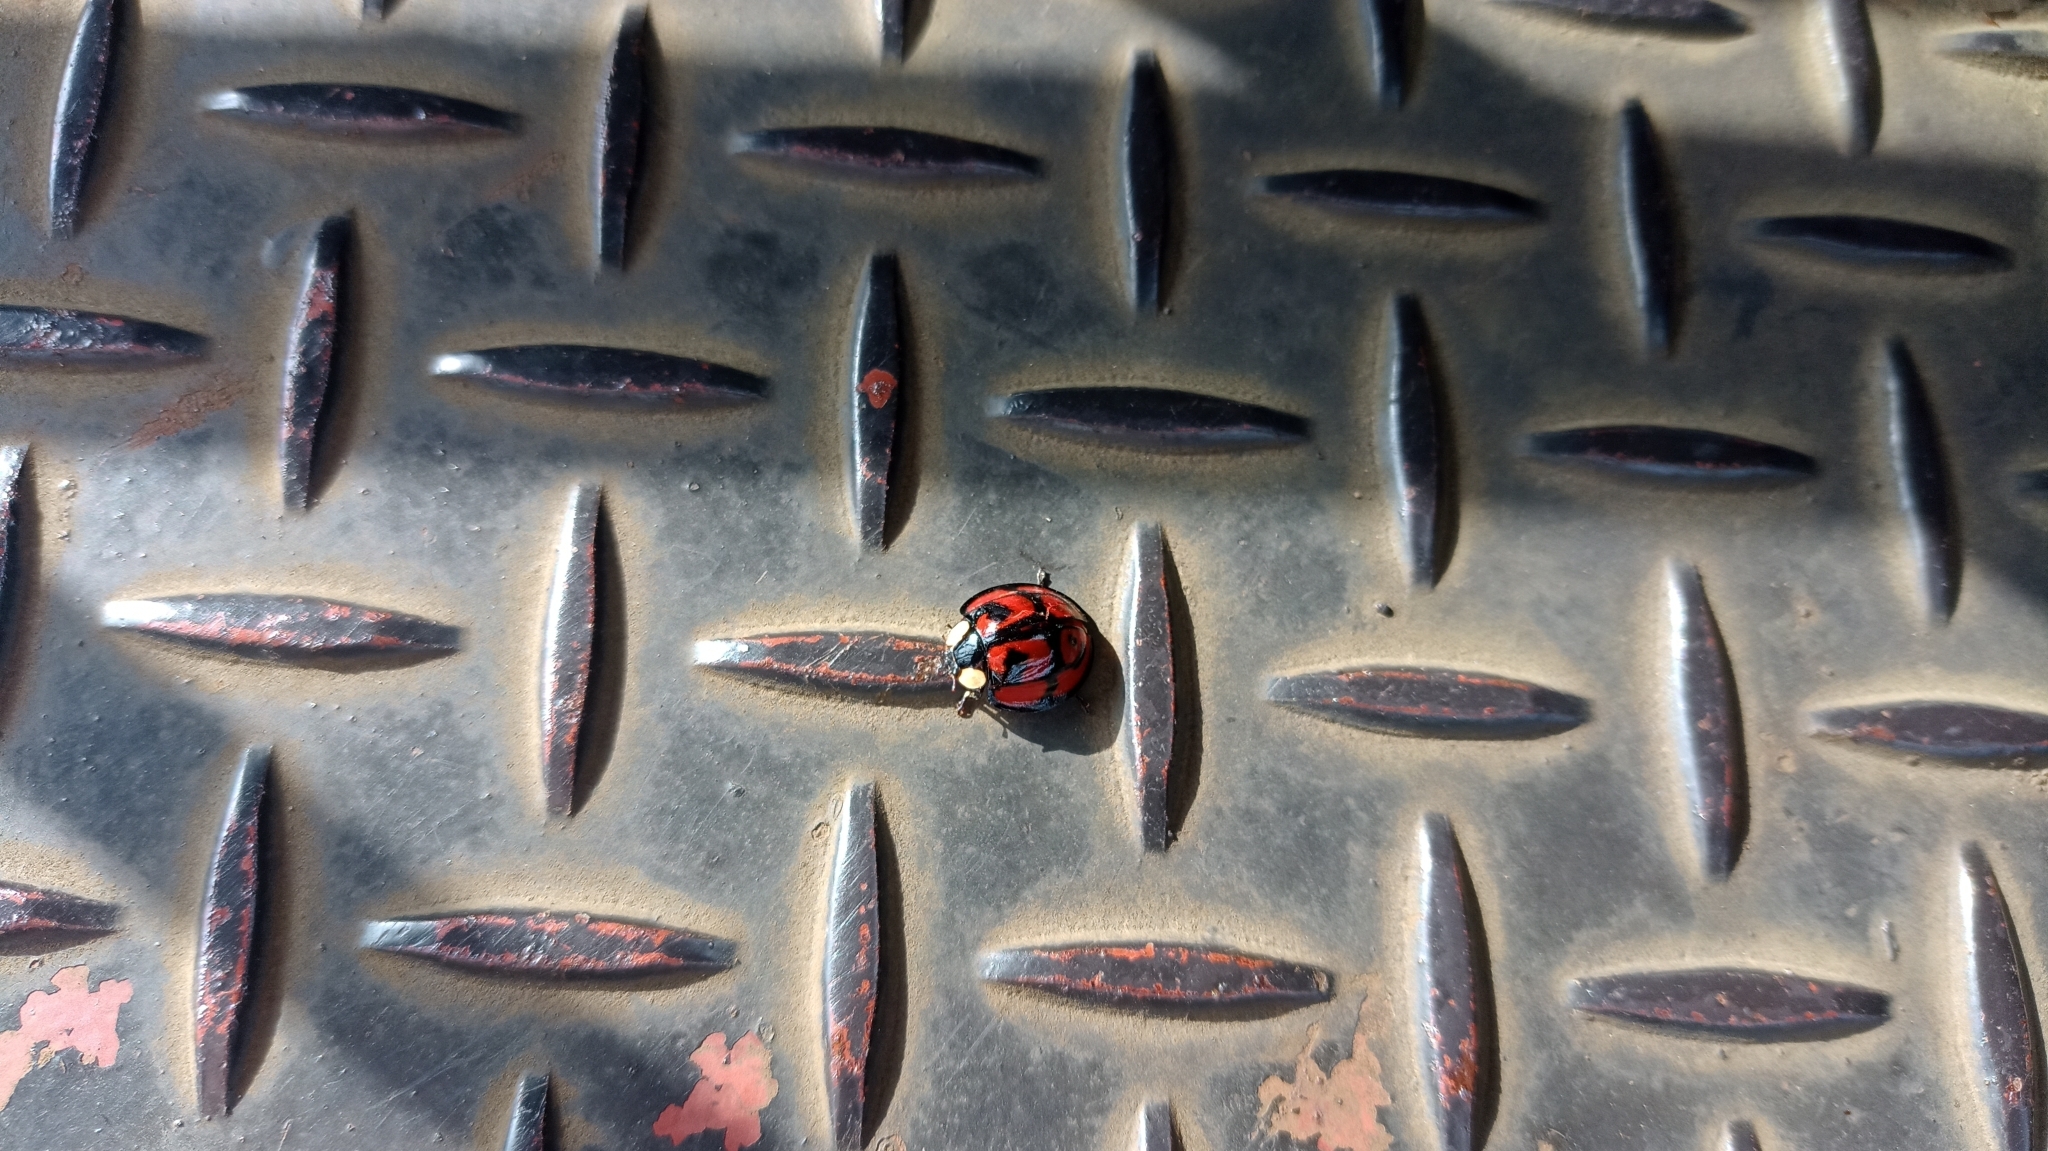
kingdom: Animalia
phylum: Arthropoda
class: Insecta
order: Coleoptera
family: Coccinellidae
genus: Aiolocaria
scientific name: Aiolocaria hexaspilota
